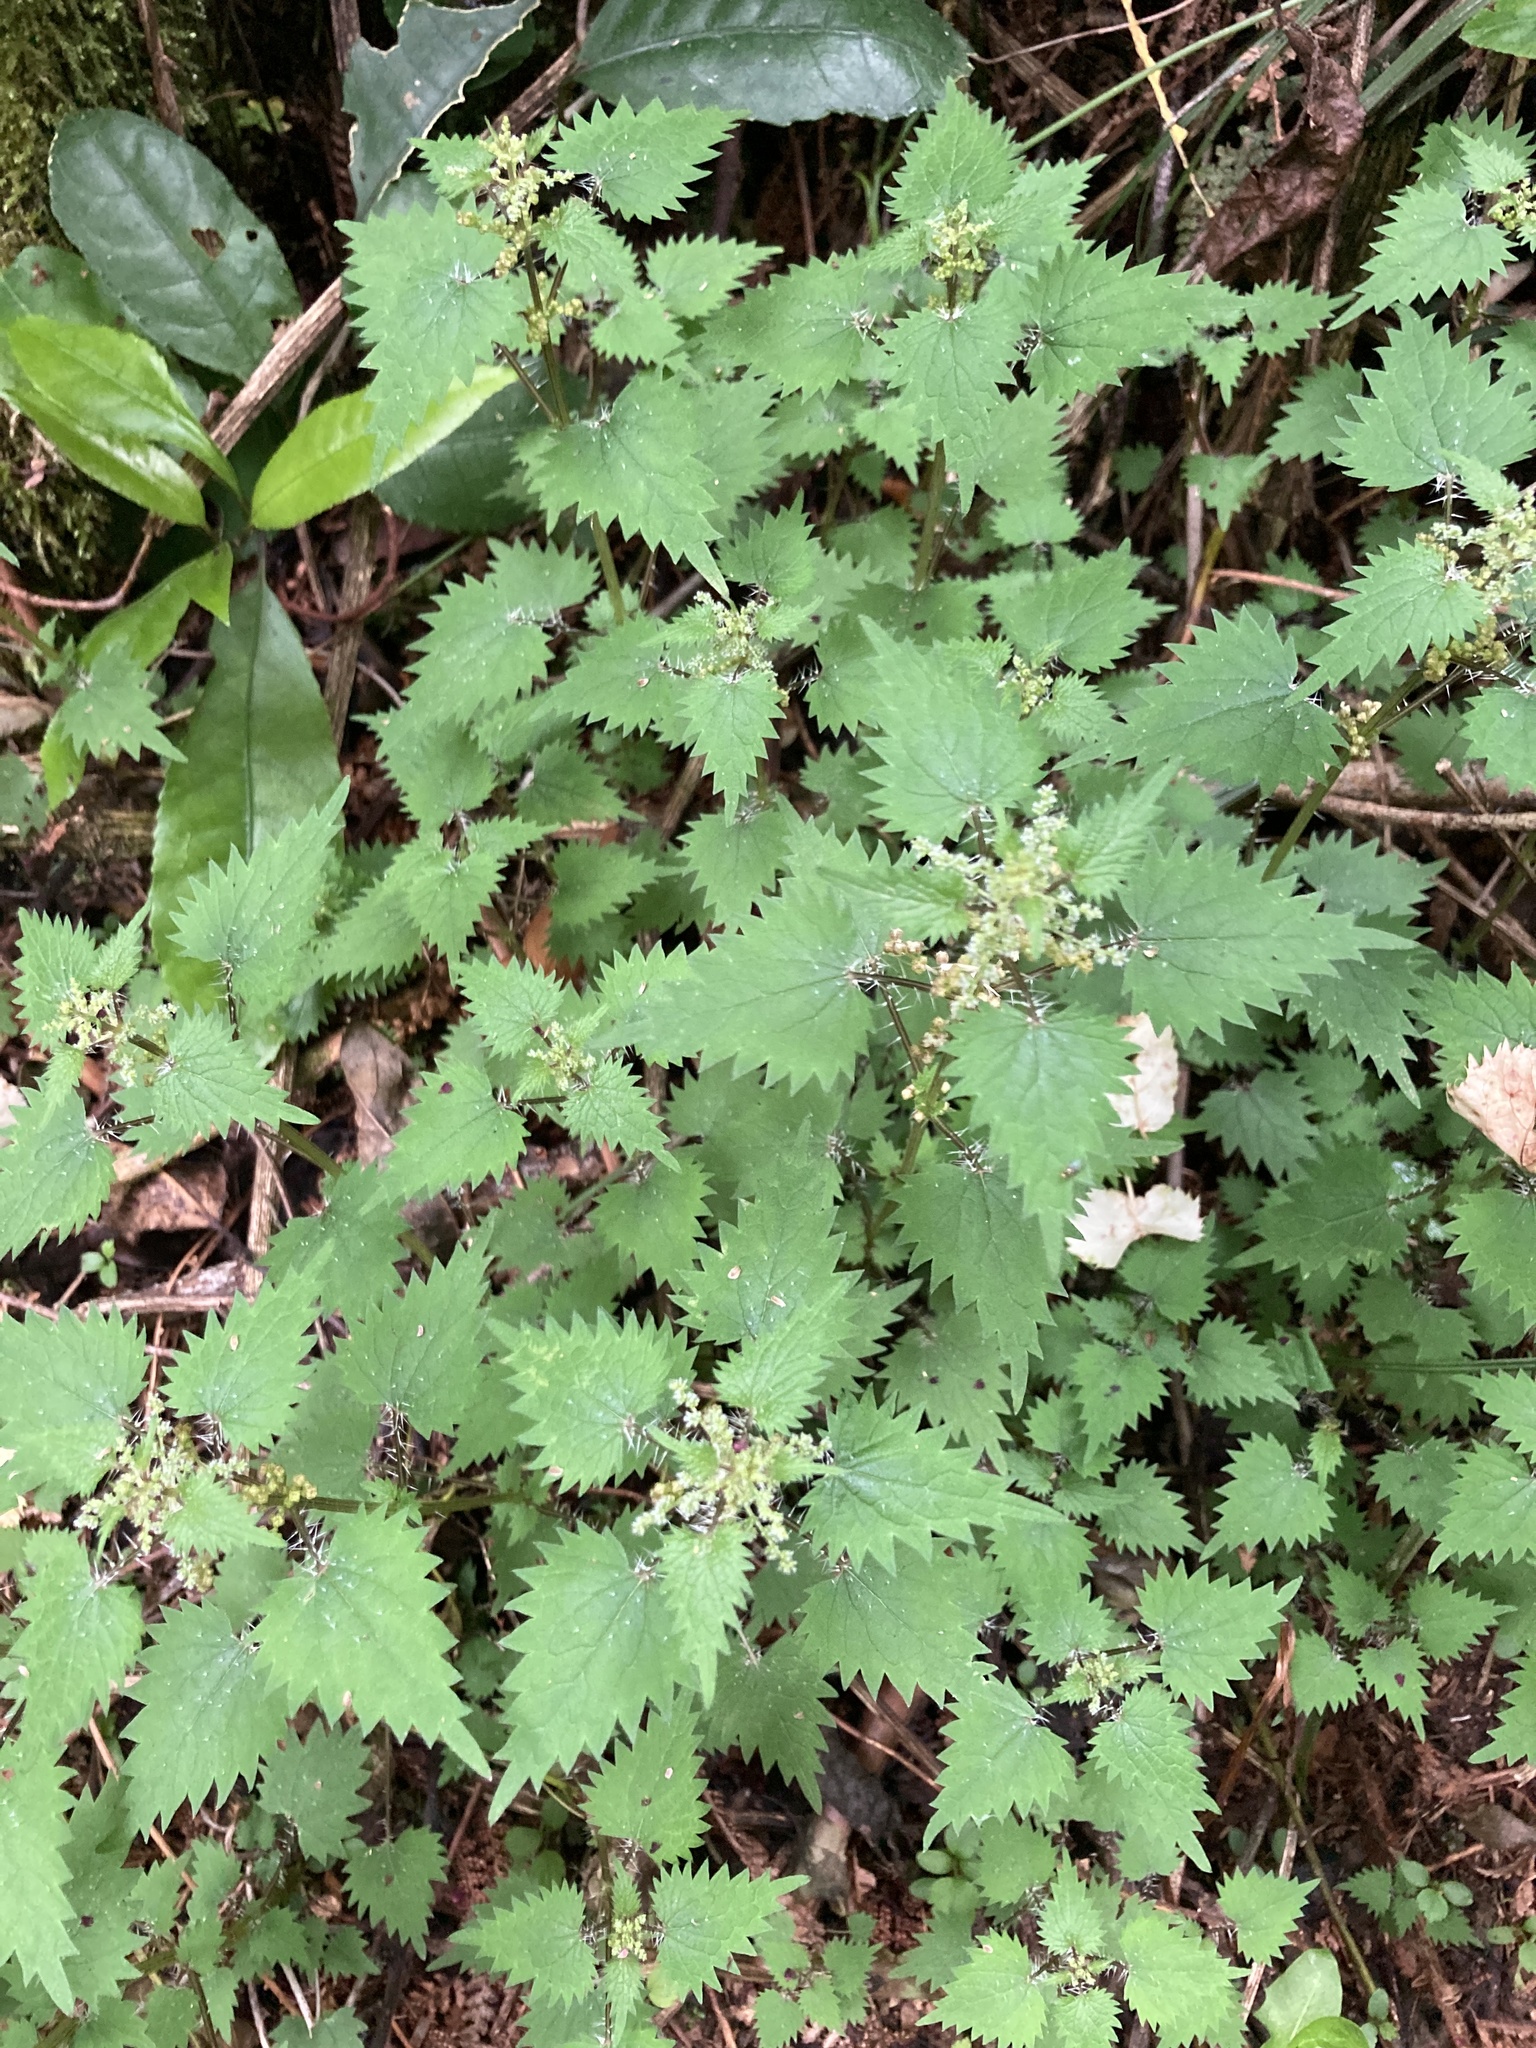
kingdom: Plantae
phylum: Tracheophyta
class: Magnoliopsida
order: Rosales
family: Urticaceae
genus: Urtica
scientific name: Urtica sykesii
